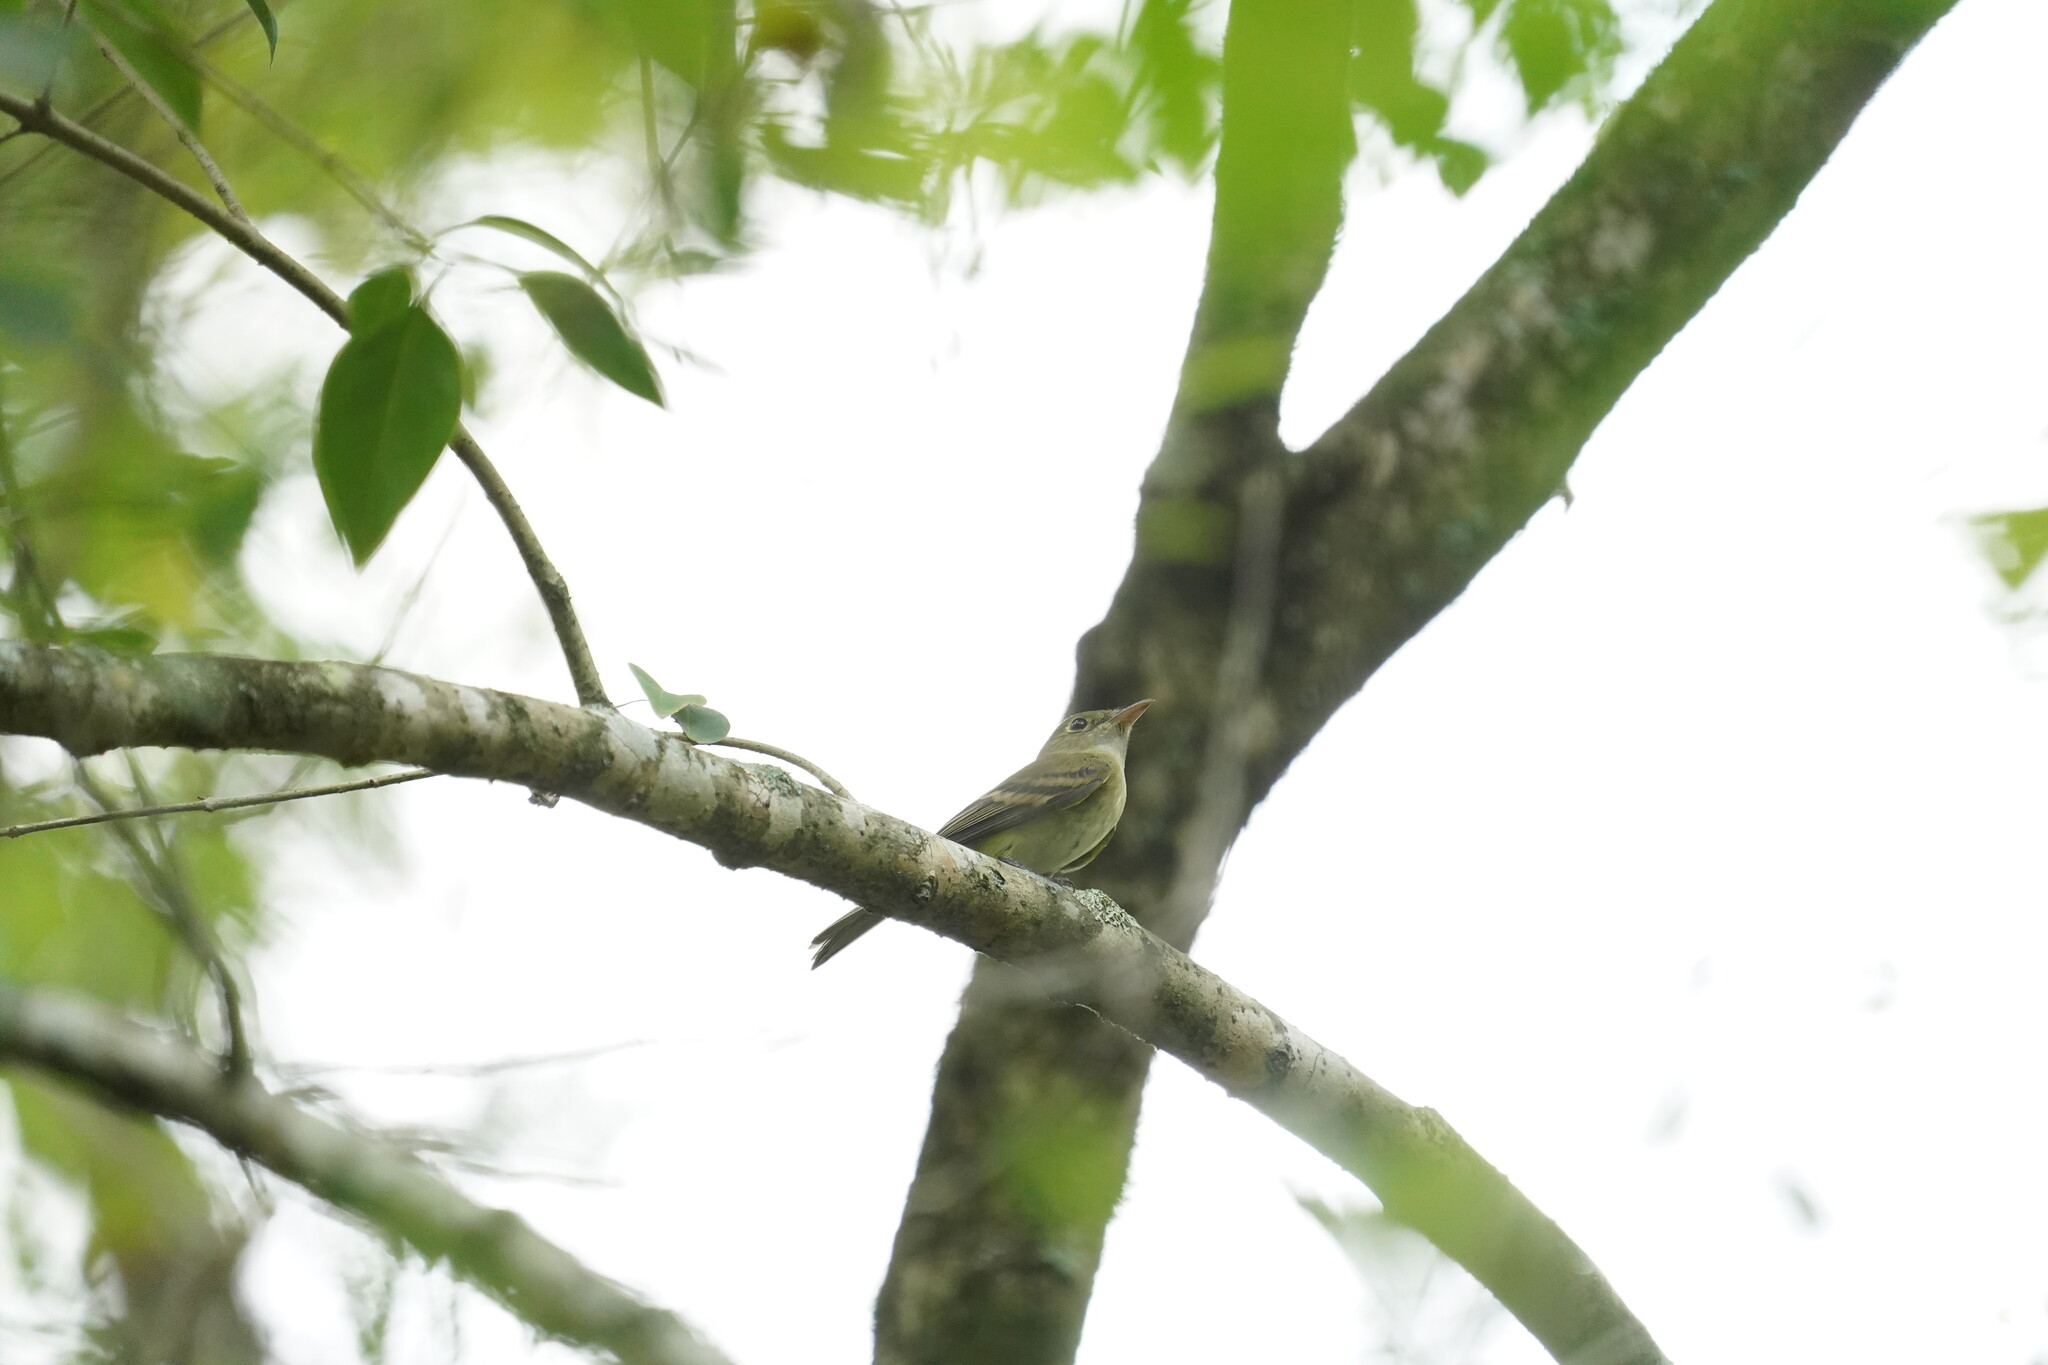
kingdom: Animalia
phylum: Chordata
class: Aves
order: Passeriformes
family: Tyrannidae
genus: Empidonax
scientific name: Empidonax virescens
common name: Acadian flycatcher
